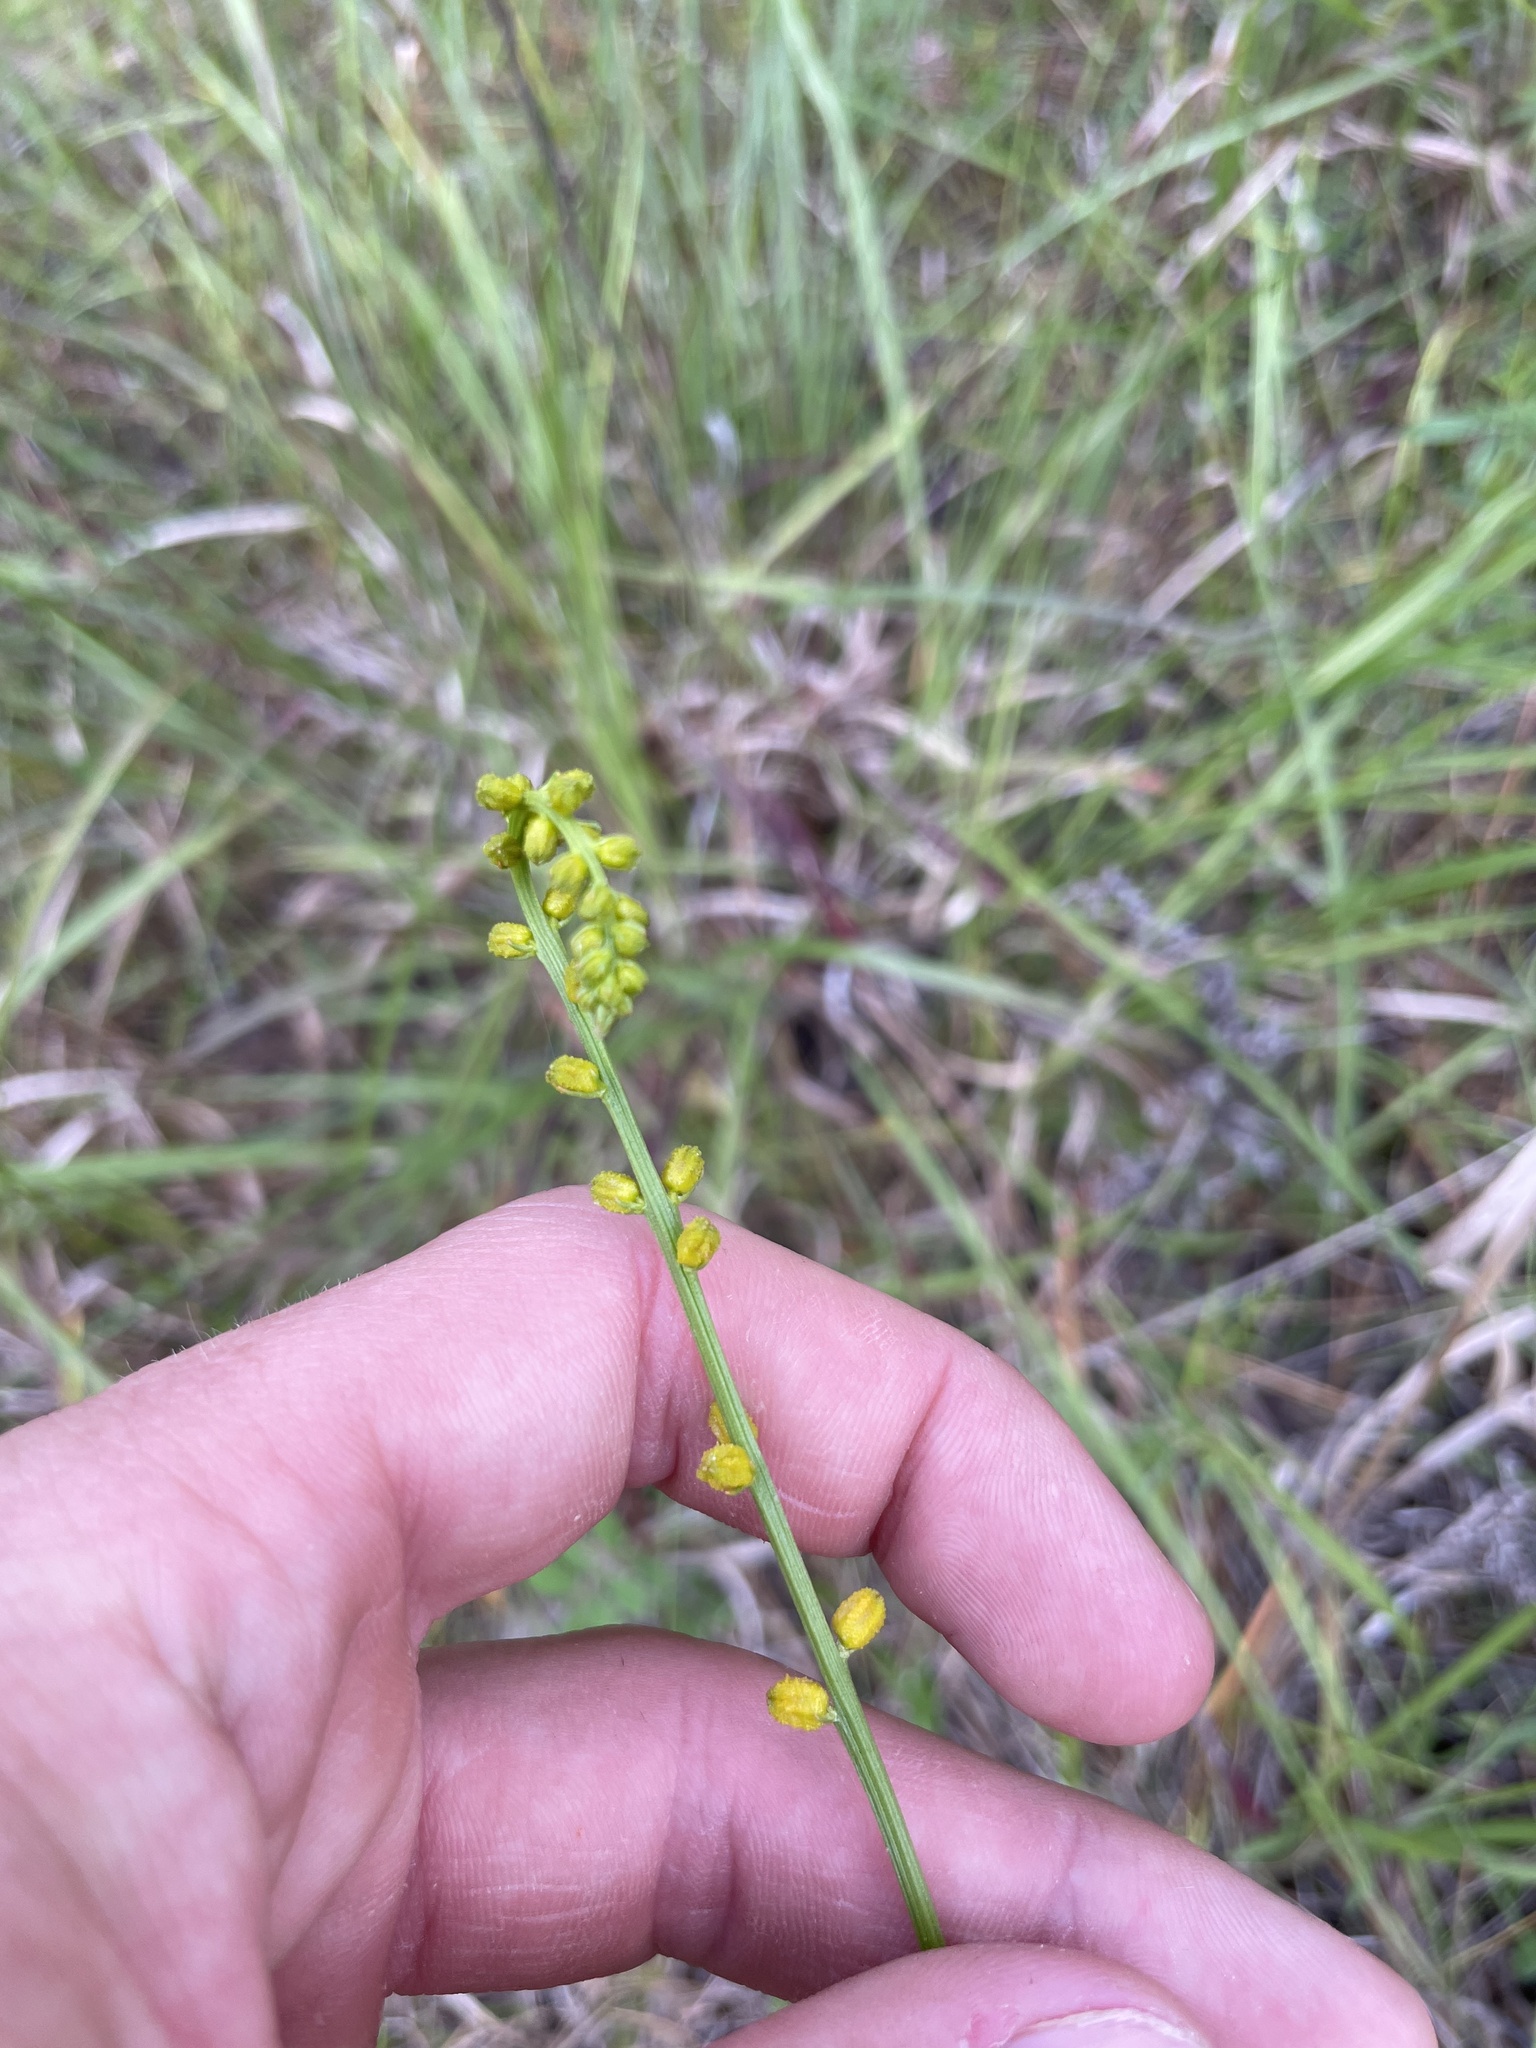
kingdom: Plantae
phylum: Tracheophyta
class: Liliopsida
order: Dioscoreales
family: Nartheciaceae
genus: Aletris
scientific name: Aletris aurea
